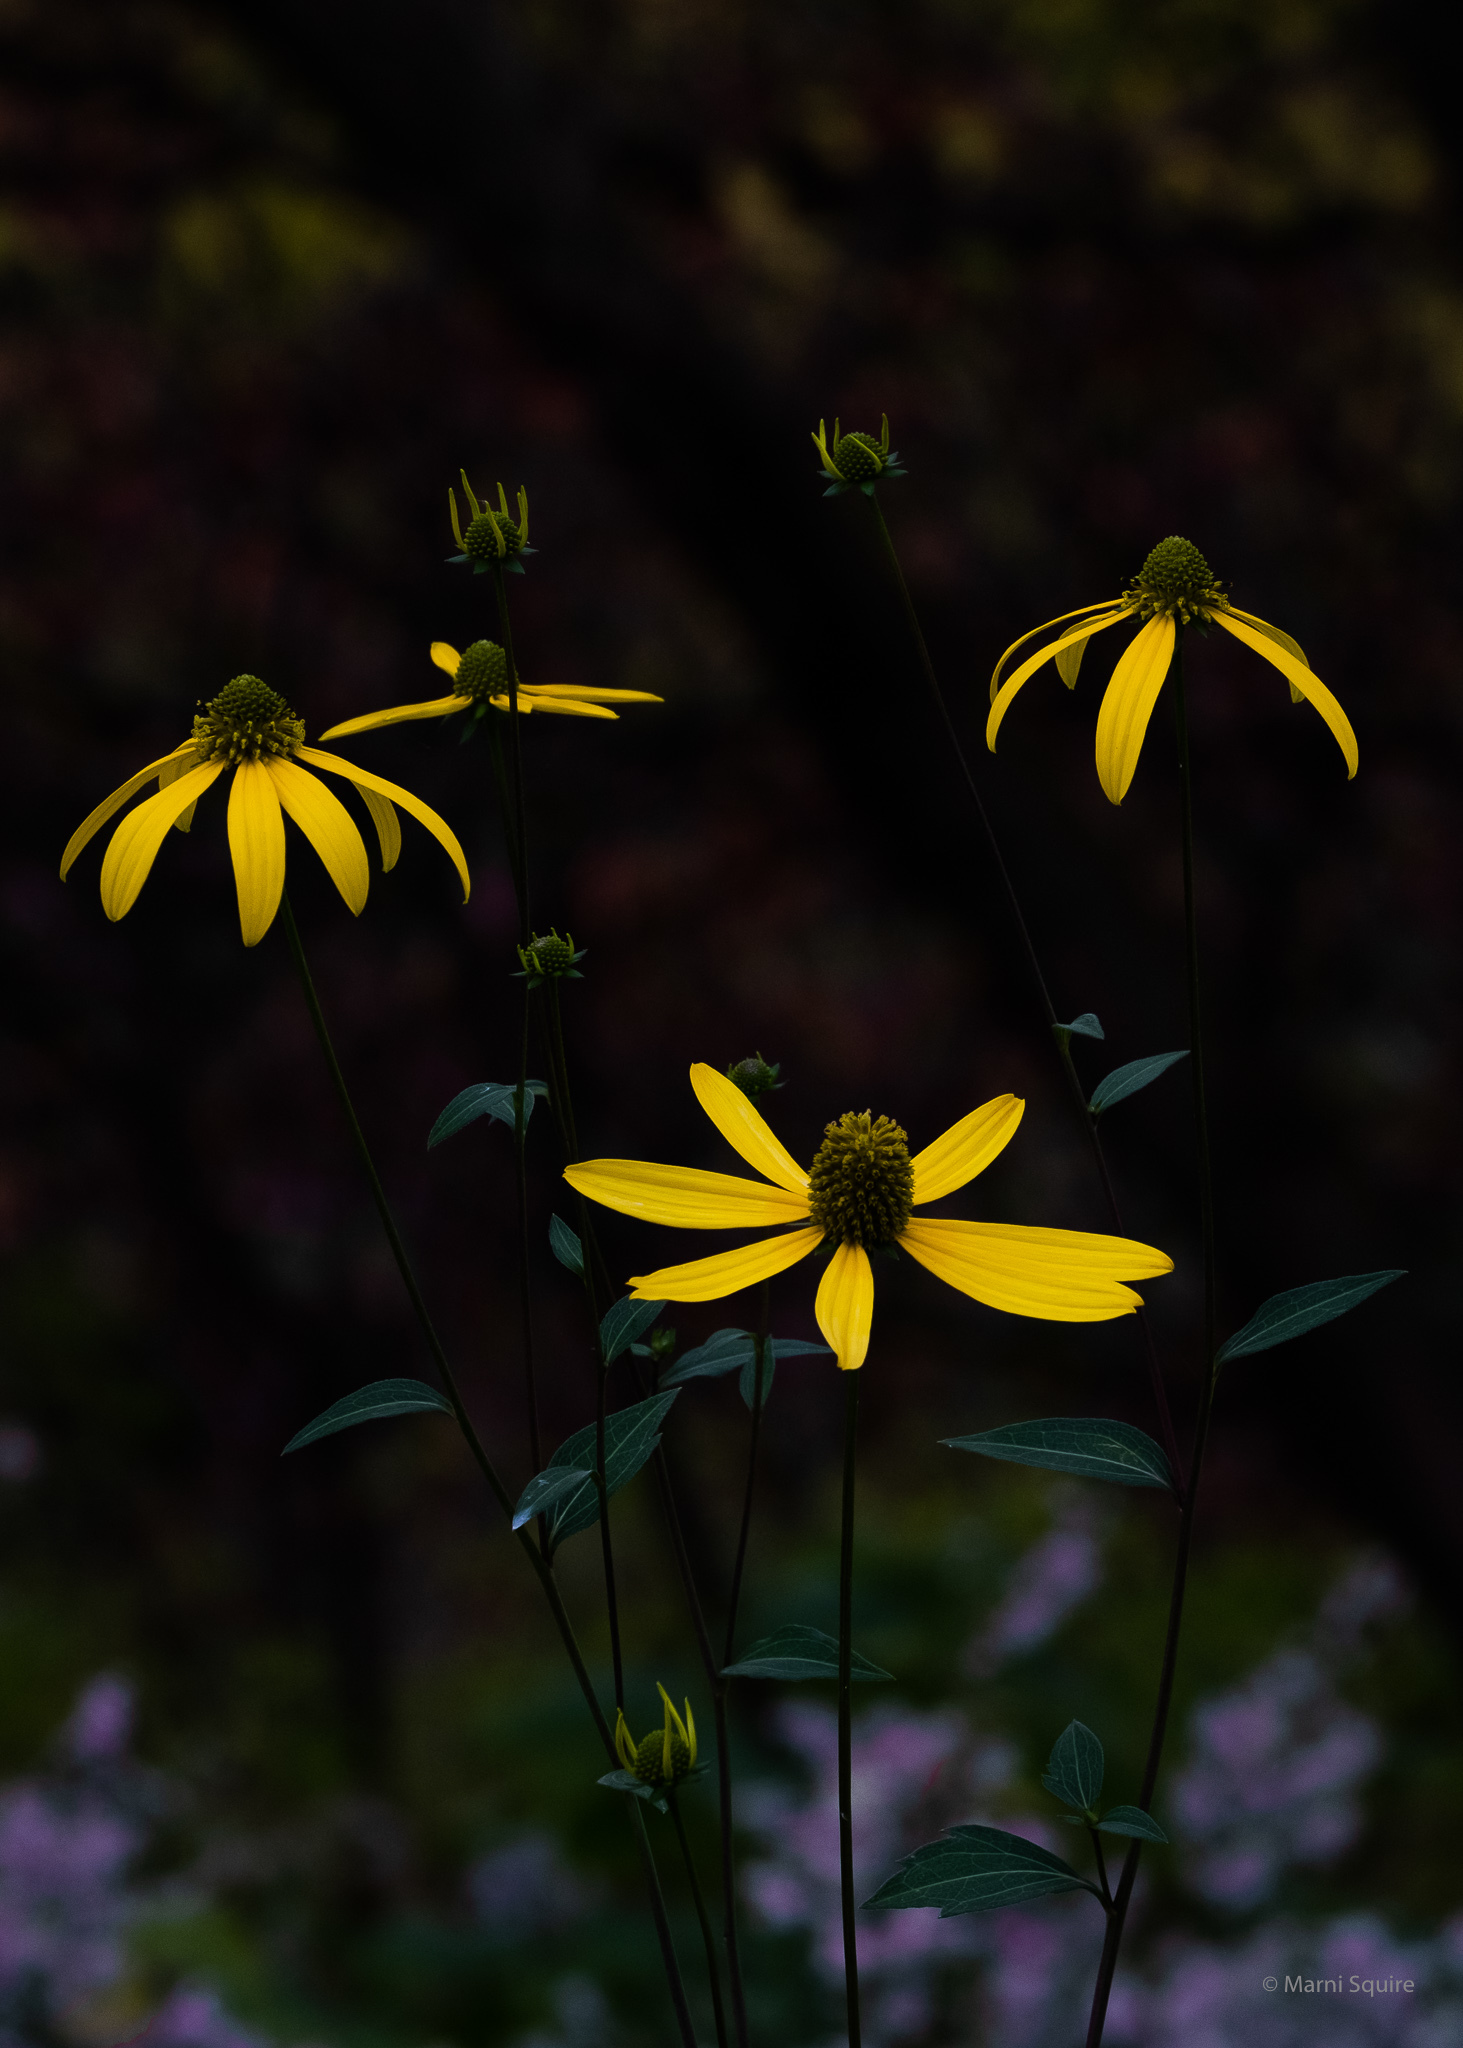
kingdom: Plantae
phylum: Tracheophyta
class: Magnoliopsida
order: Asterales
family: Asteraceae
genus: Rudbeckia
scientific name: Rudbeckia laciniata
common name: Coneflower
